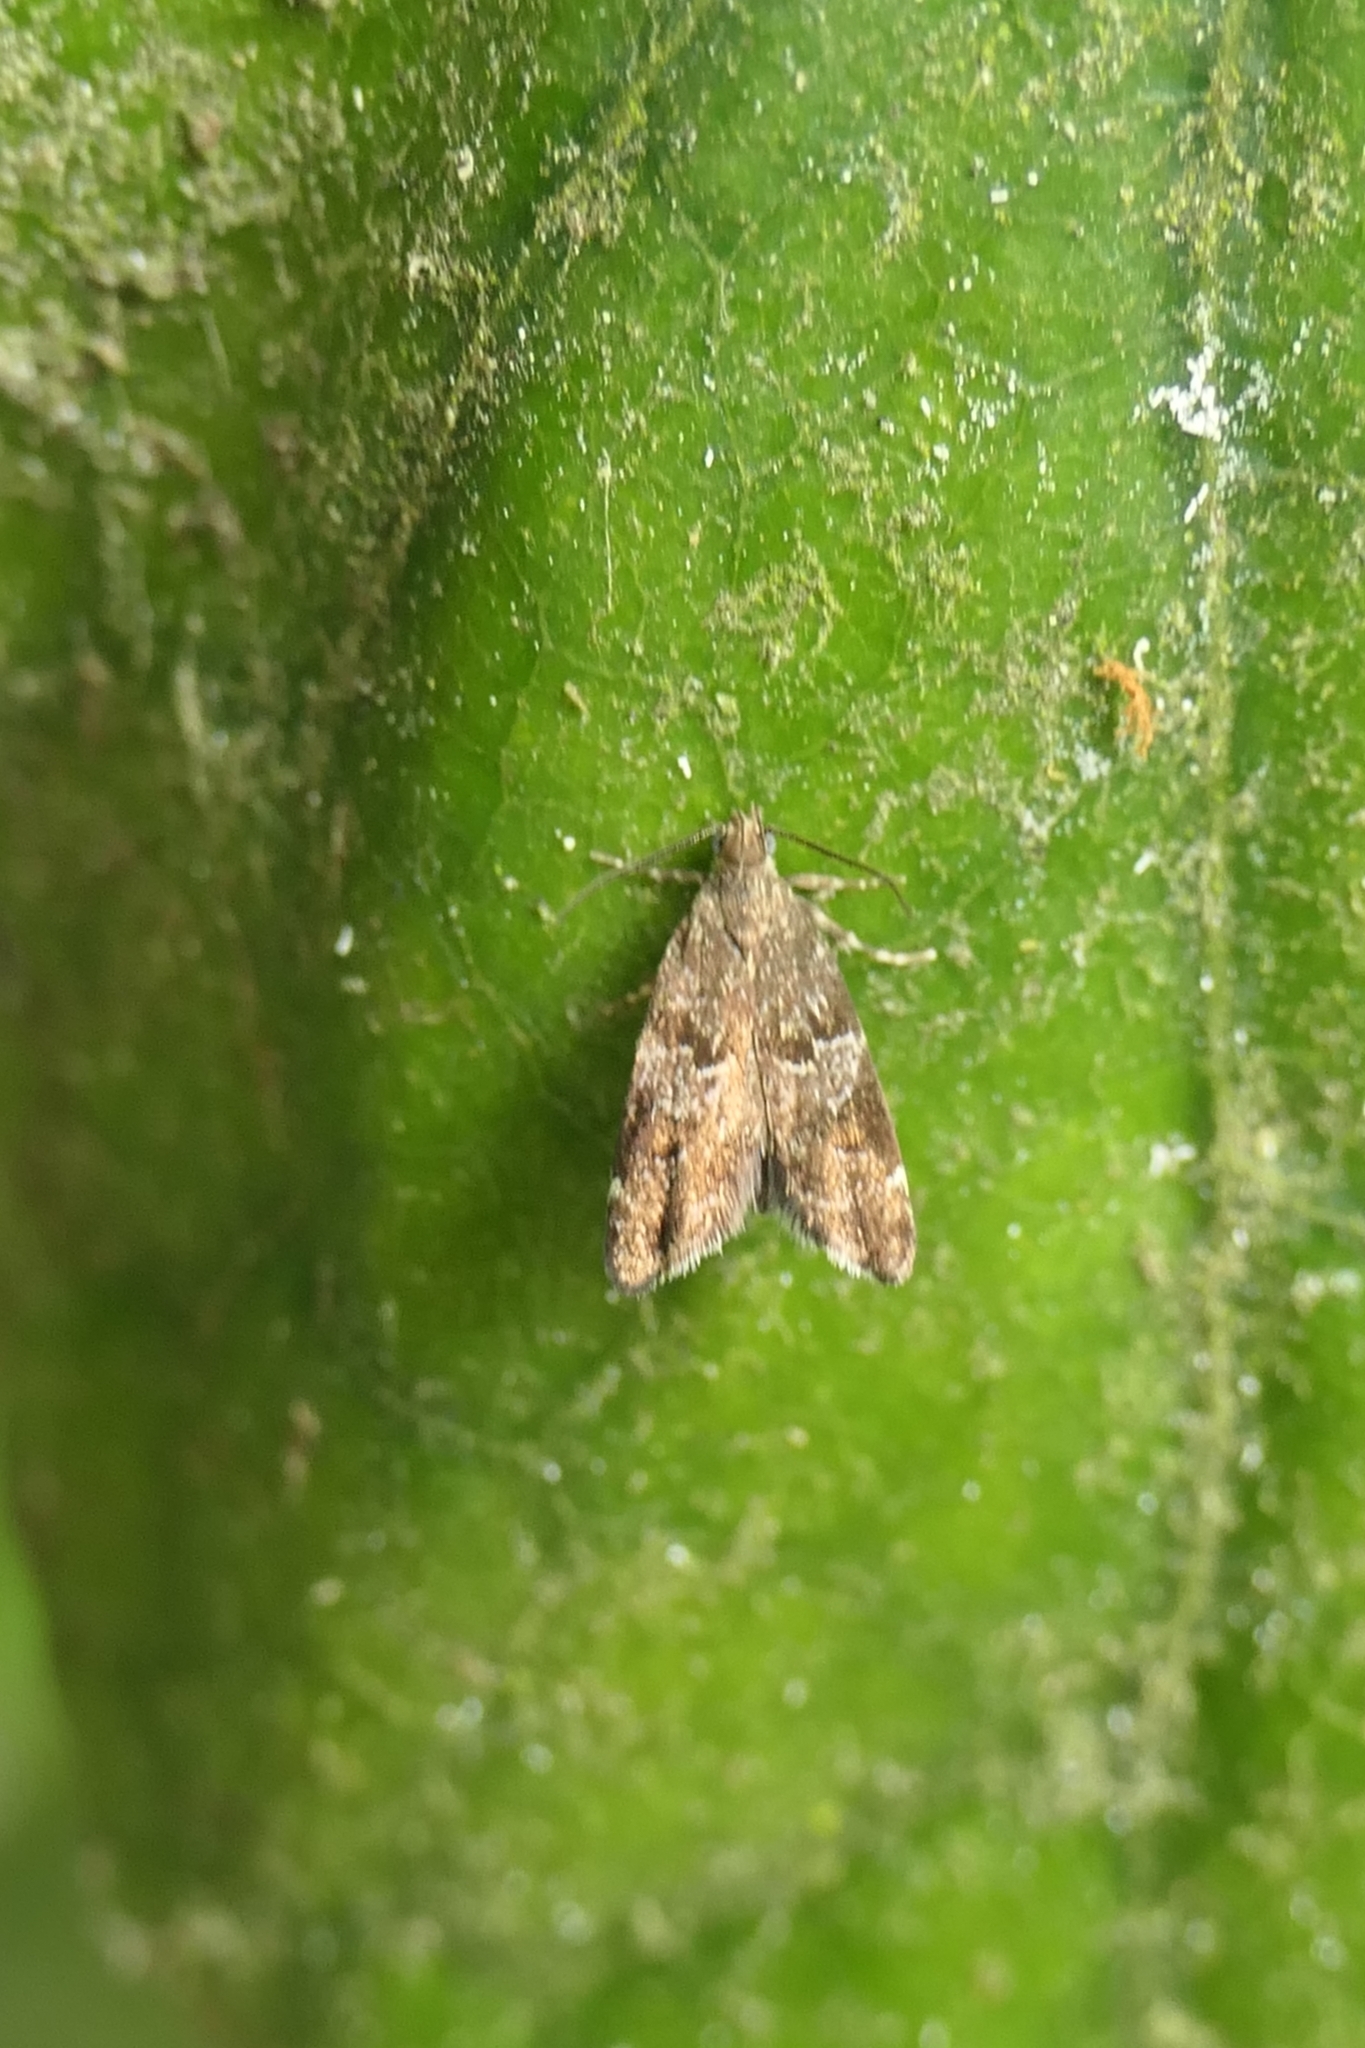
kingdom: Animalia
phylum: Arthropoda
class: Insecta
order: Lepidoptera
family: Oecophoridae
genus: Gymnobathra
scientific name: Gymnobathra omphalota
